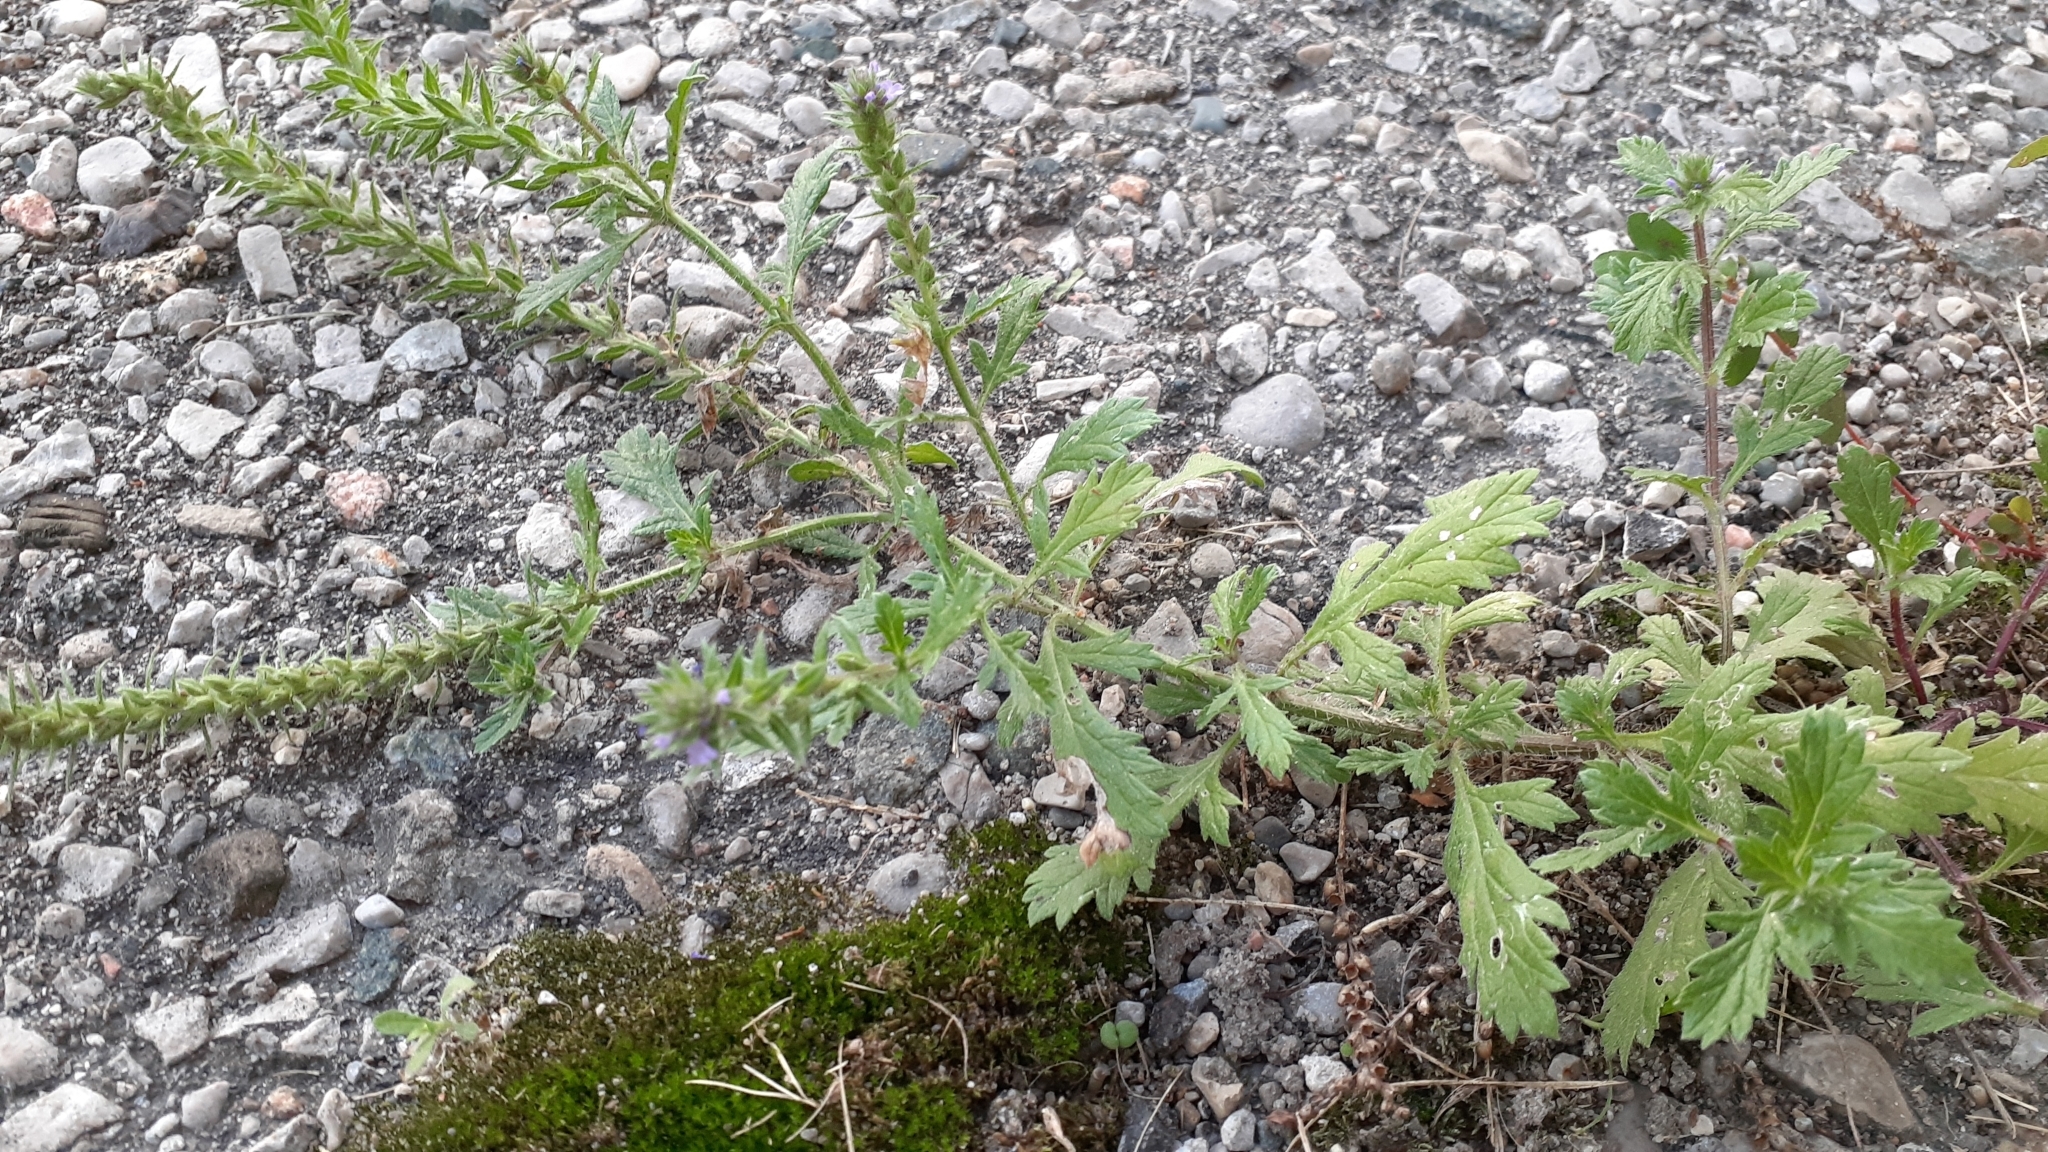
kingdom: Plantae
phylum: Tracheophyta
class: Magnoliopsida
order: Lamiales
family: Verbenaceae
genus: Verbena
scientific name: Verbena bracteata
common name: Bracted vervain
